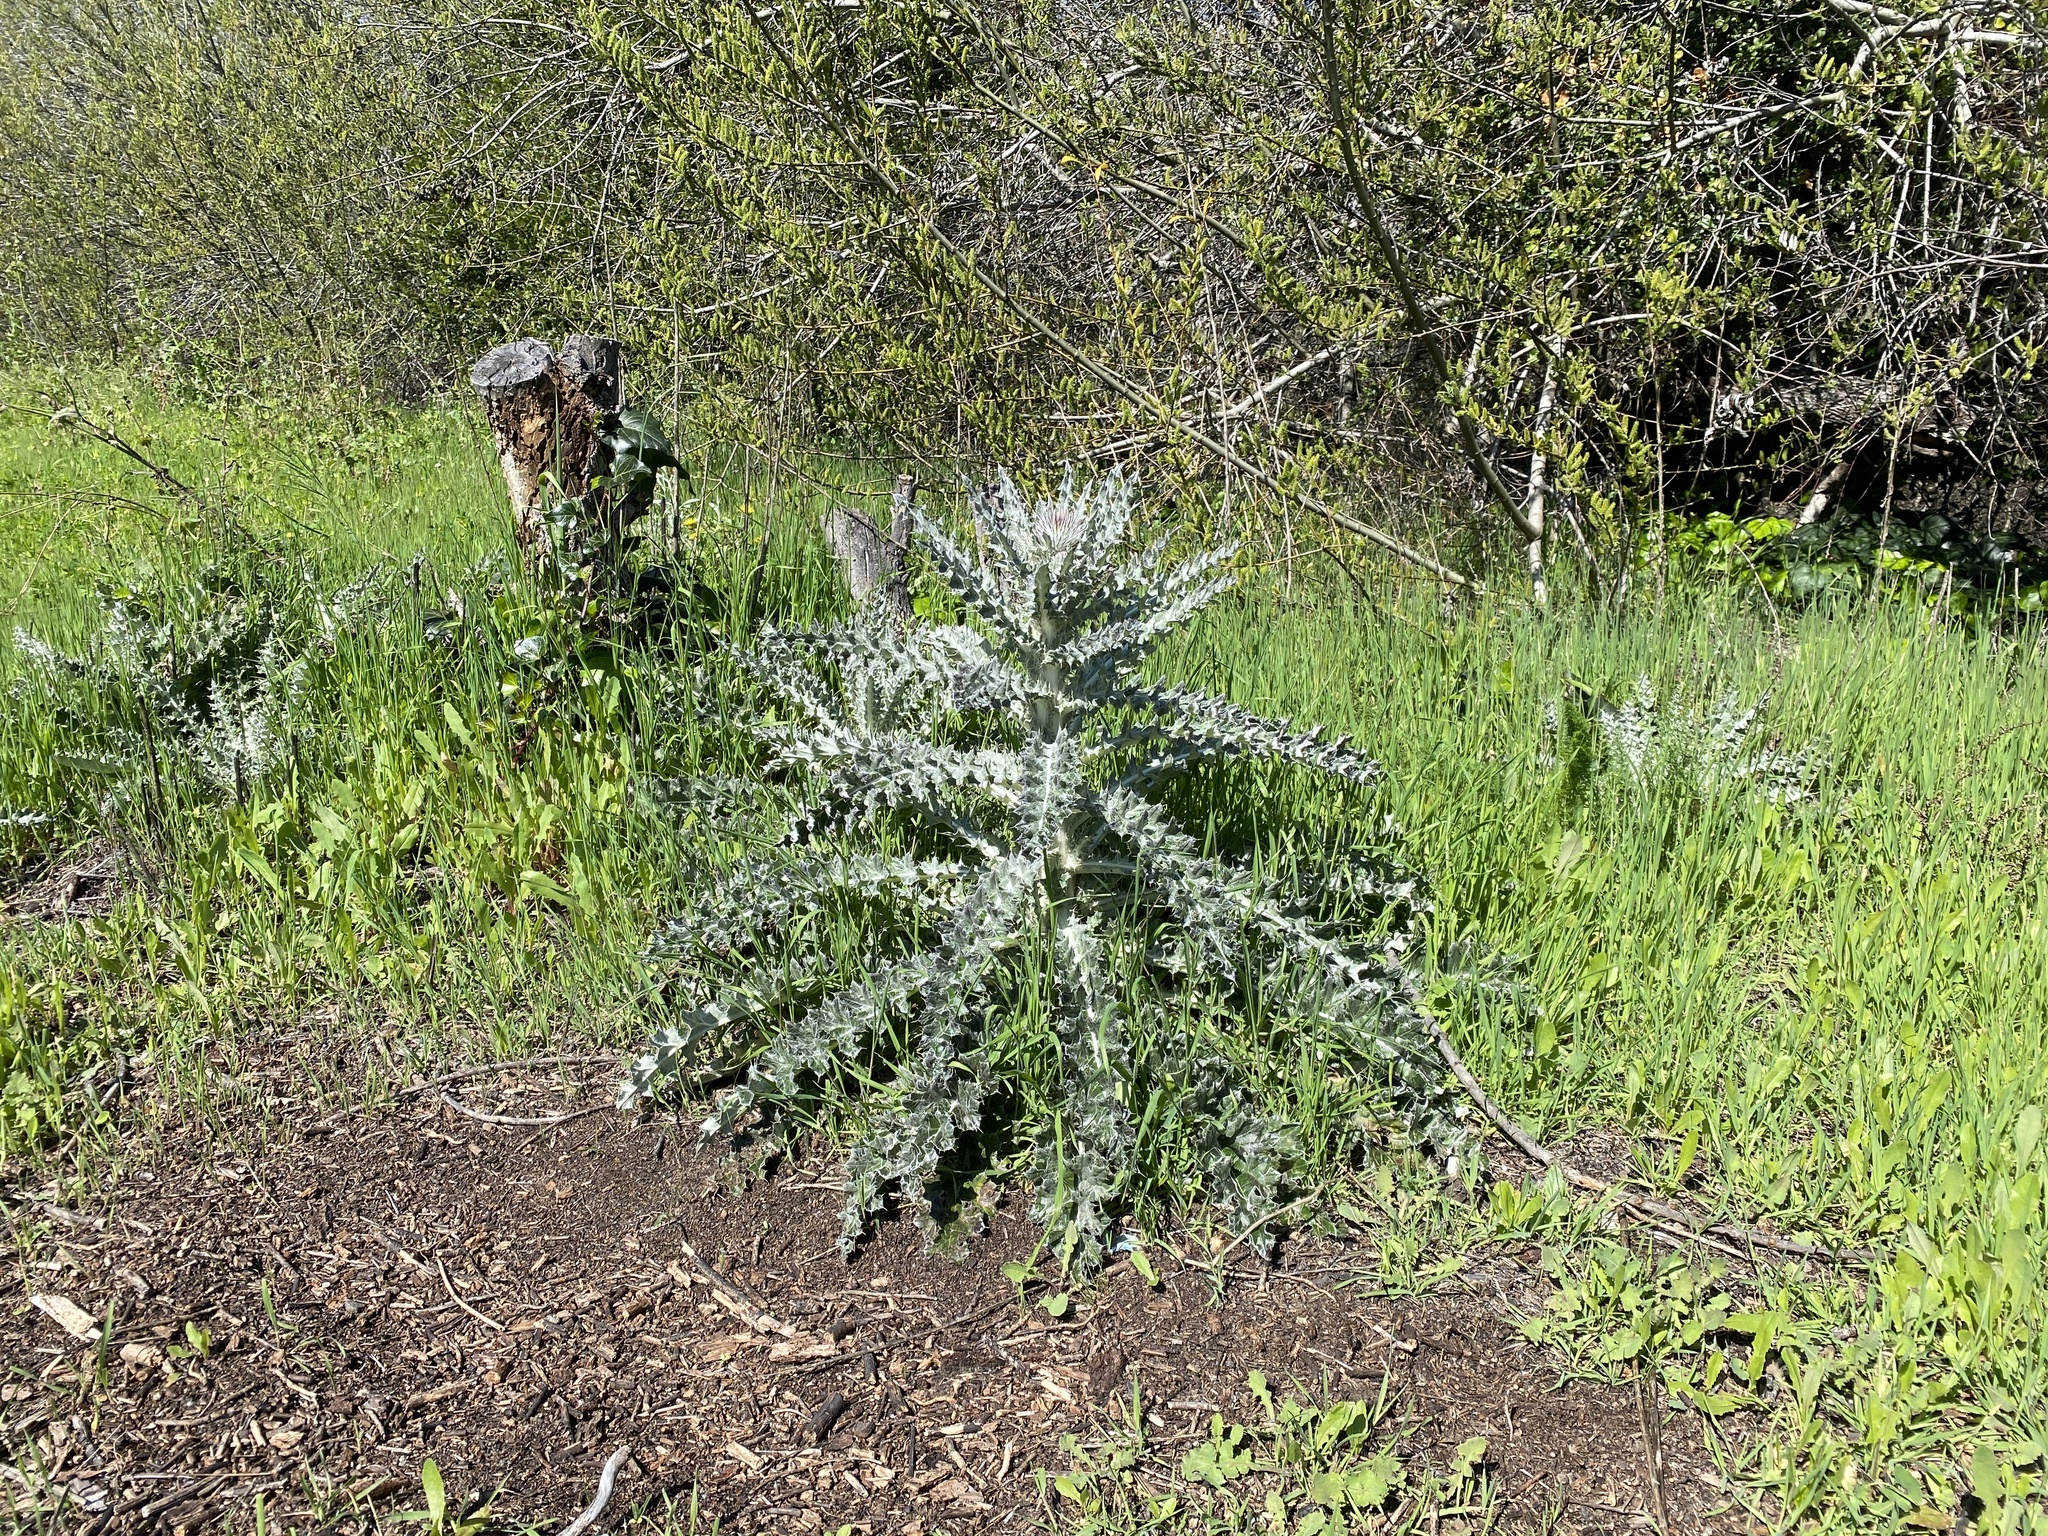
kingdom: Plantae
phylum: Tracheophyta
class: Magnoliopsida
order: Asterales
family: Asteraceae
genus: Cirsium
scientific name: Cirsium occidentale
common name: Western thistle
